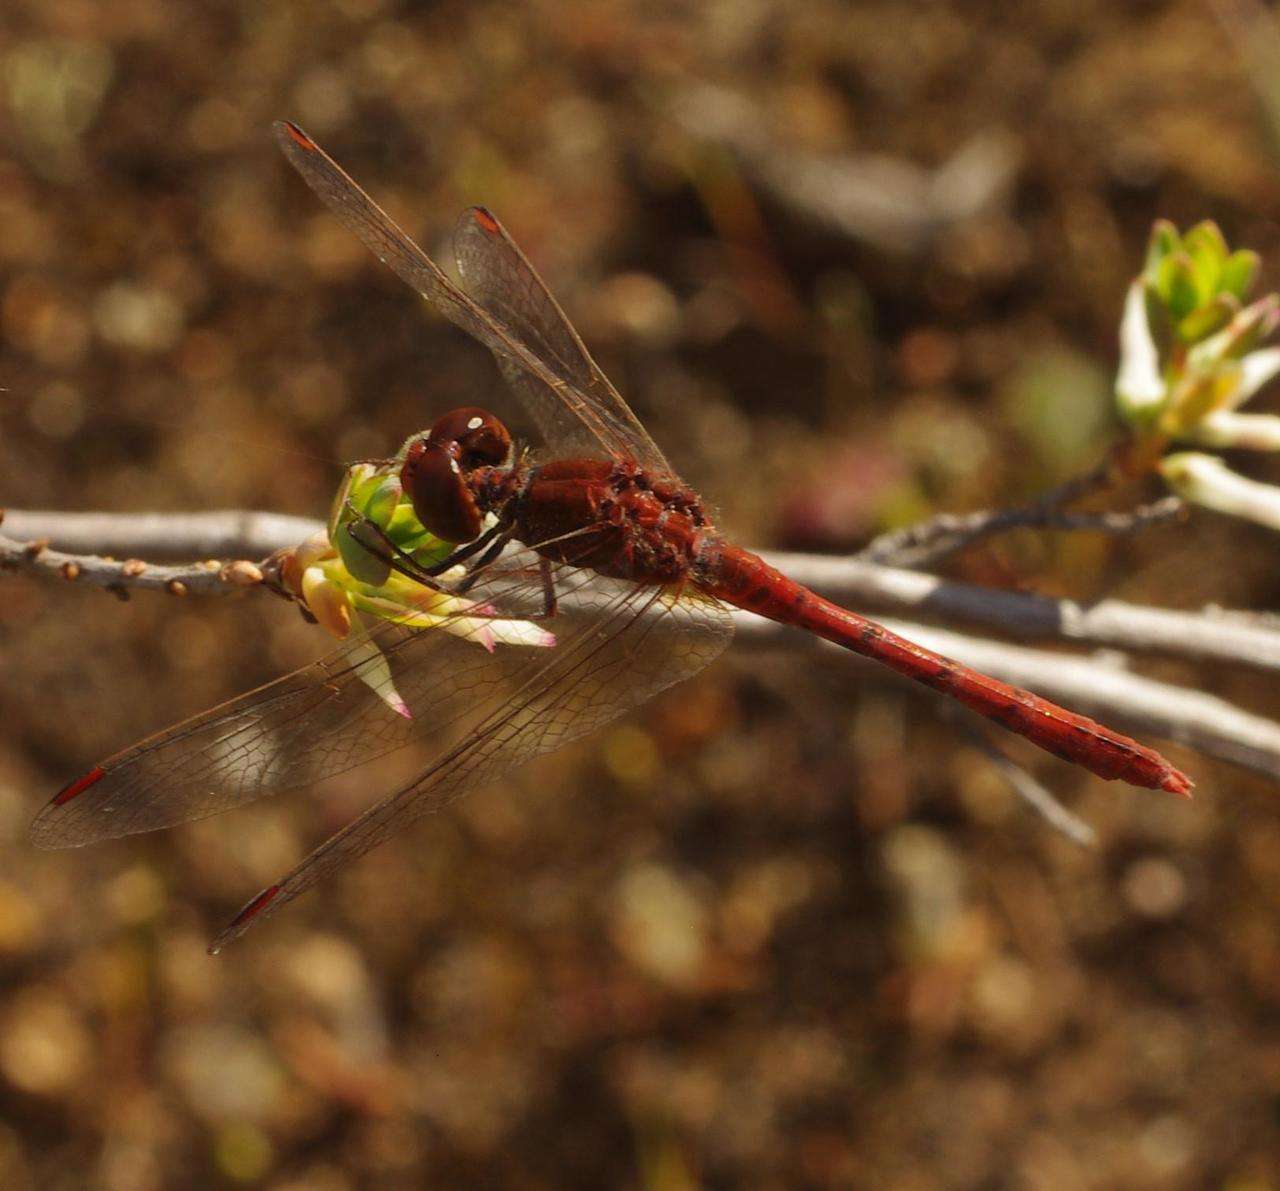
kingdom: Animalia
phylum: Arthropoda
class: Insecta
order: Odonata
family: Libellulidae
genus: Diplacodes
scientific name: Diplacodes bipunctata
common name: Red percher dragonfly
